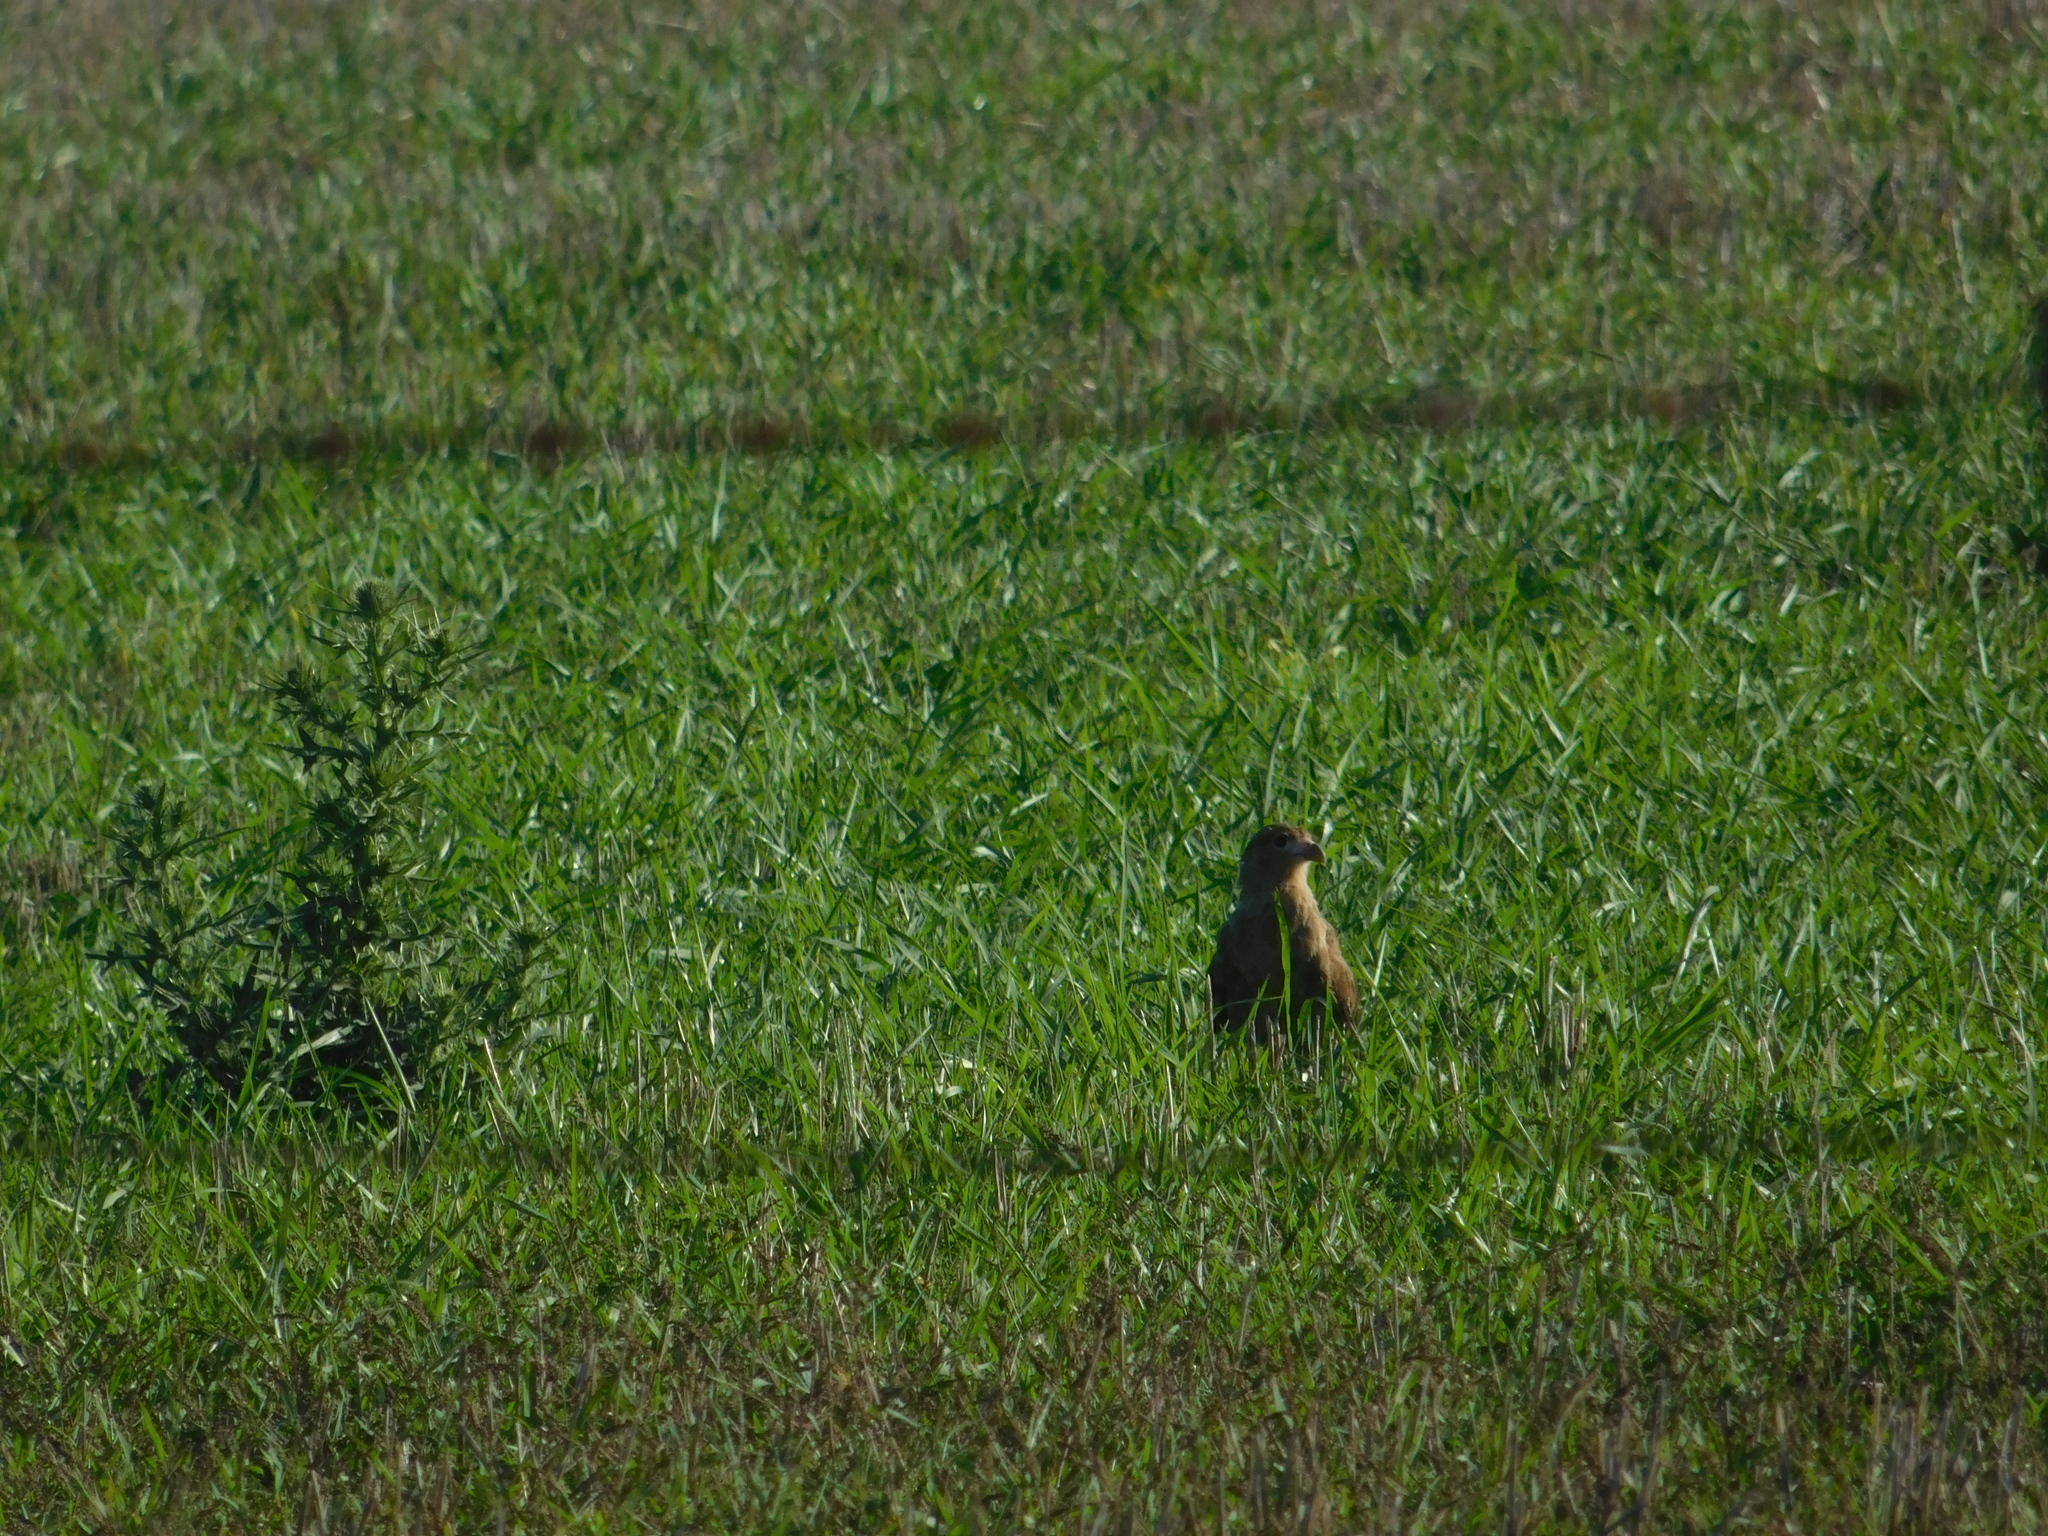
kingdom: Animalia
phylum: Chordata
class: Aves
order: Falconiformes
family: Falconidae
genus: Daptrius
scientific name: Daptrius
